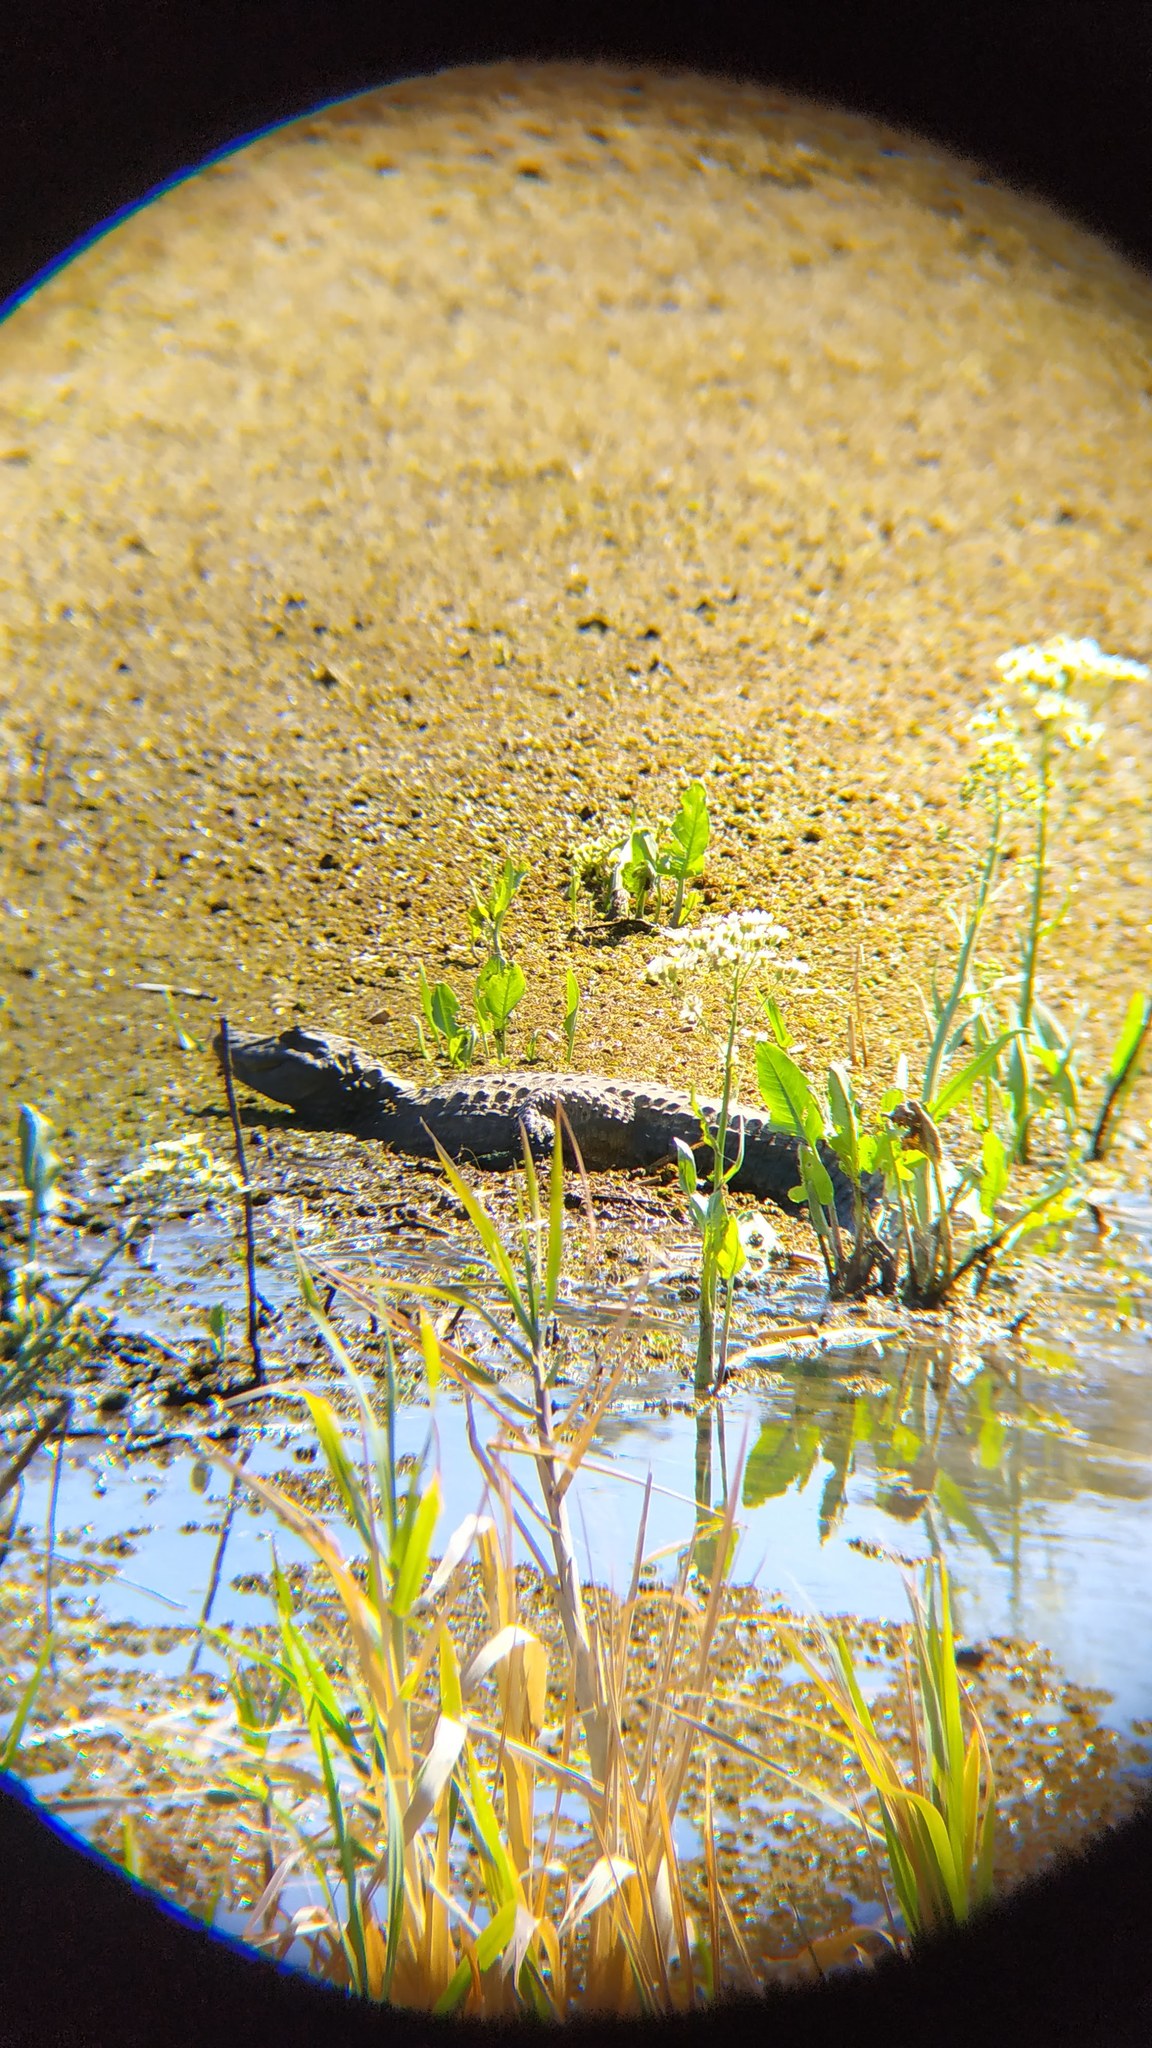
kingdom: Animalia
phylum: Chordata
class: Crocodylia
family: Alligatoridae
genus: Caiman
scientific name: Caiman latirostris
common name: Broad-snouted caiman
